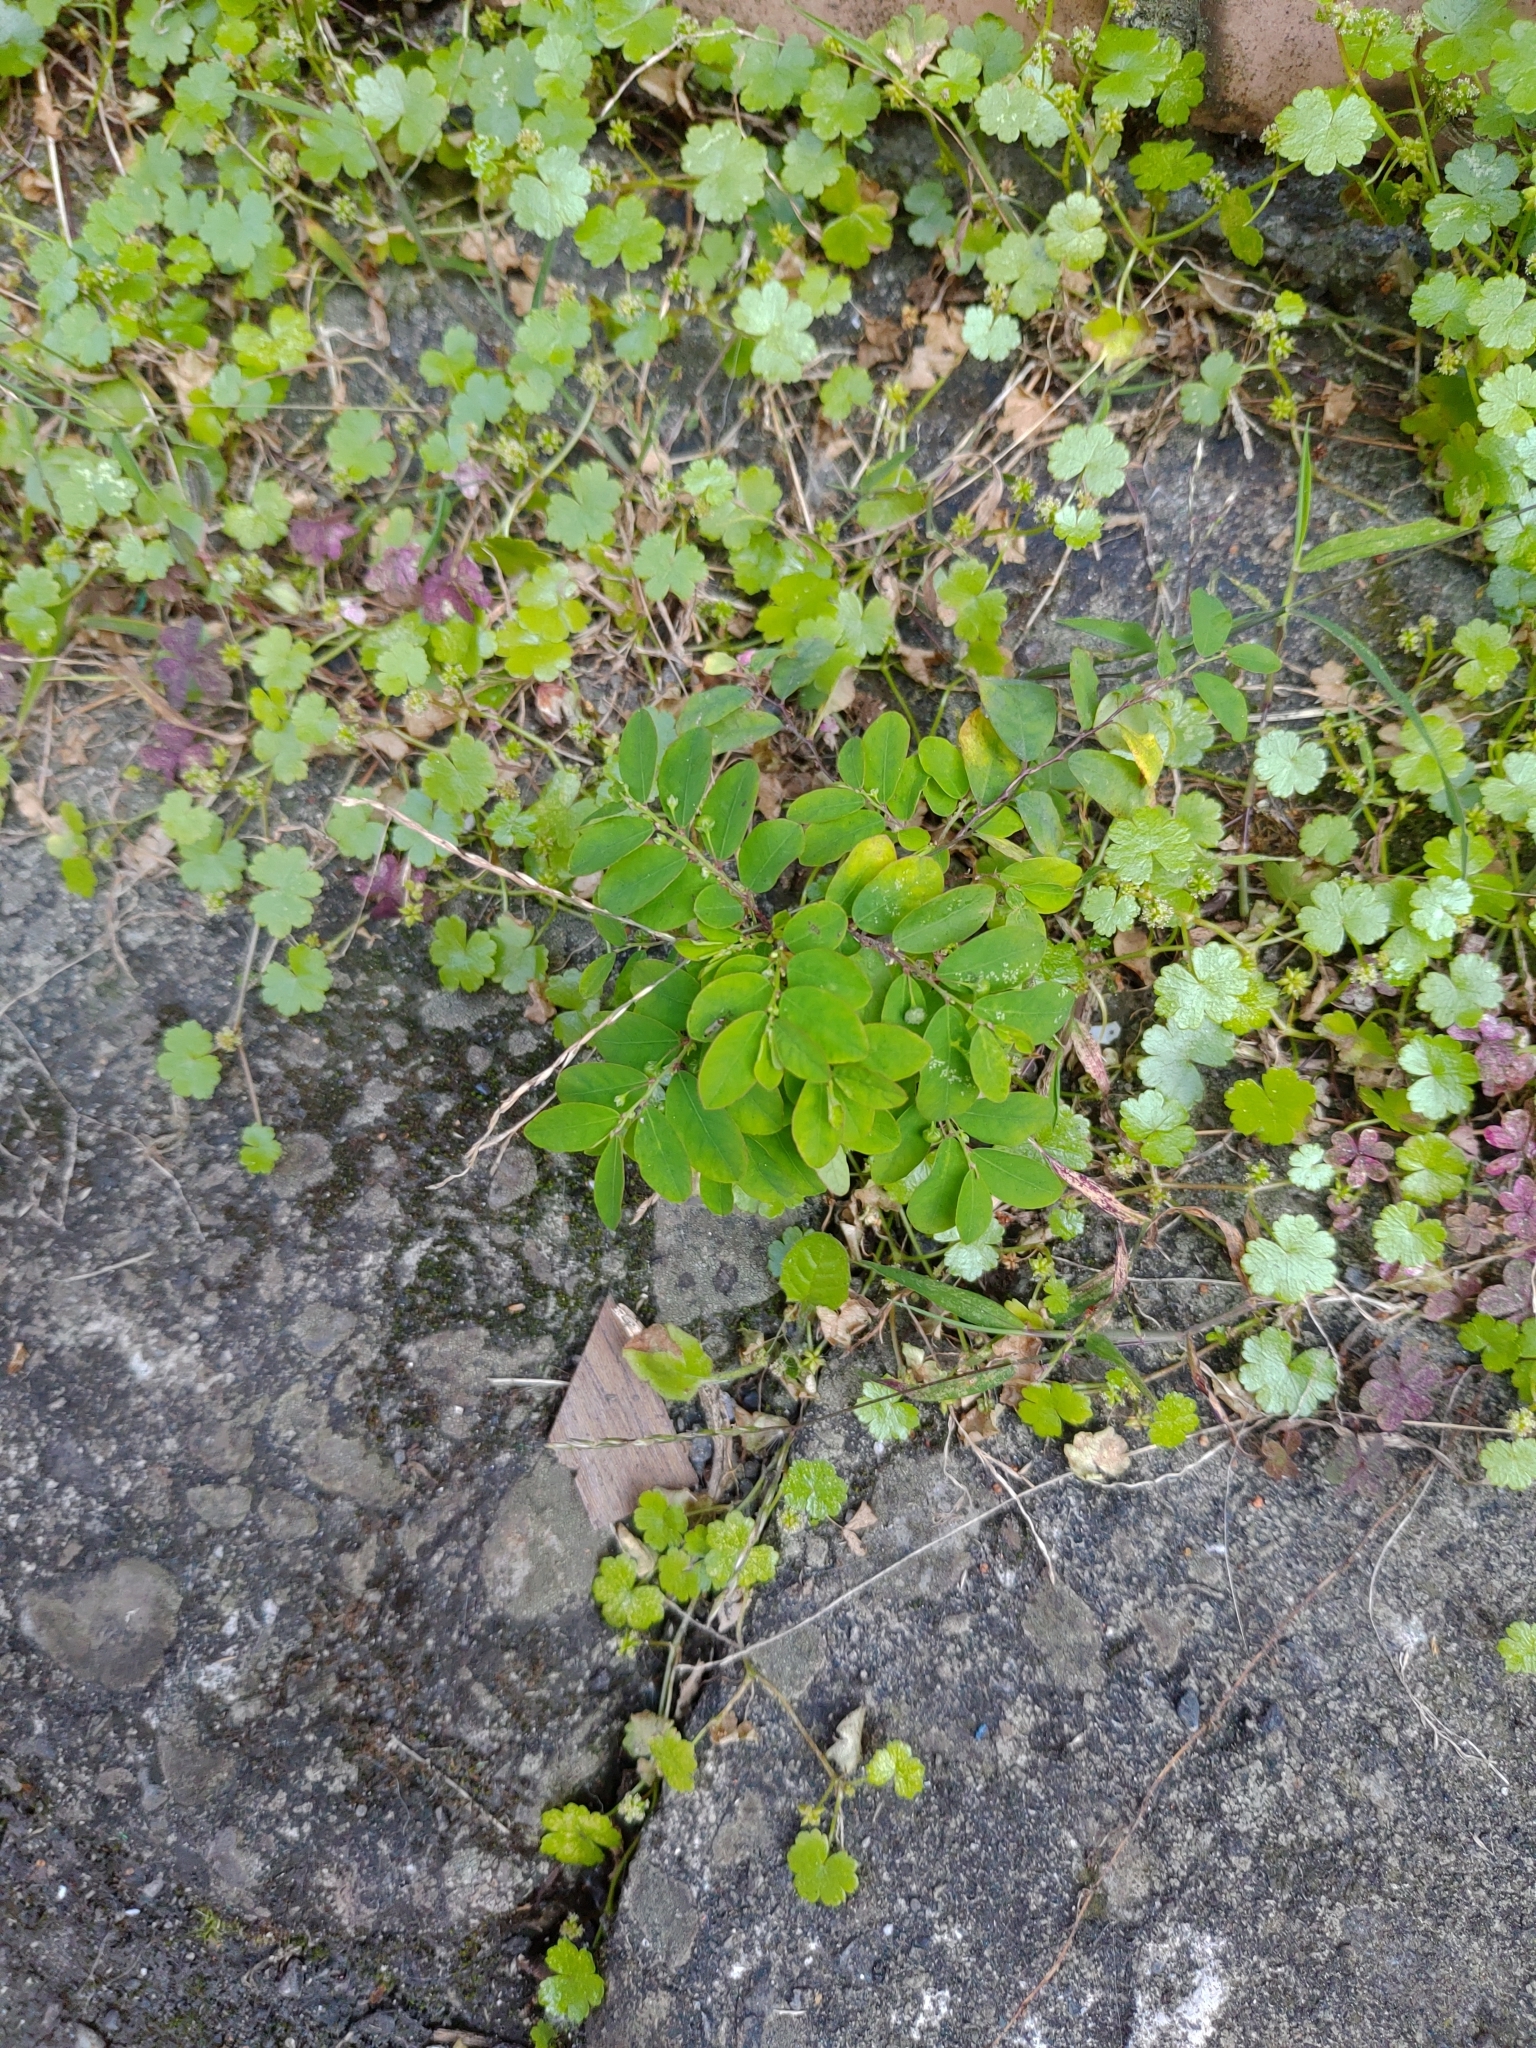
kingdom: Plantae
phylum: Tracheophyta
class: Magnoliopsida
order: Malpighiales
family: Phyllanthaceae
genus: Phyllanthus
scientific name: Phyllanthus tenellus
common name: Mascarene island leaf-flower
